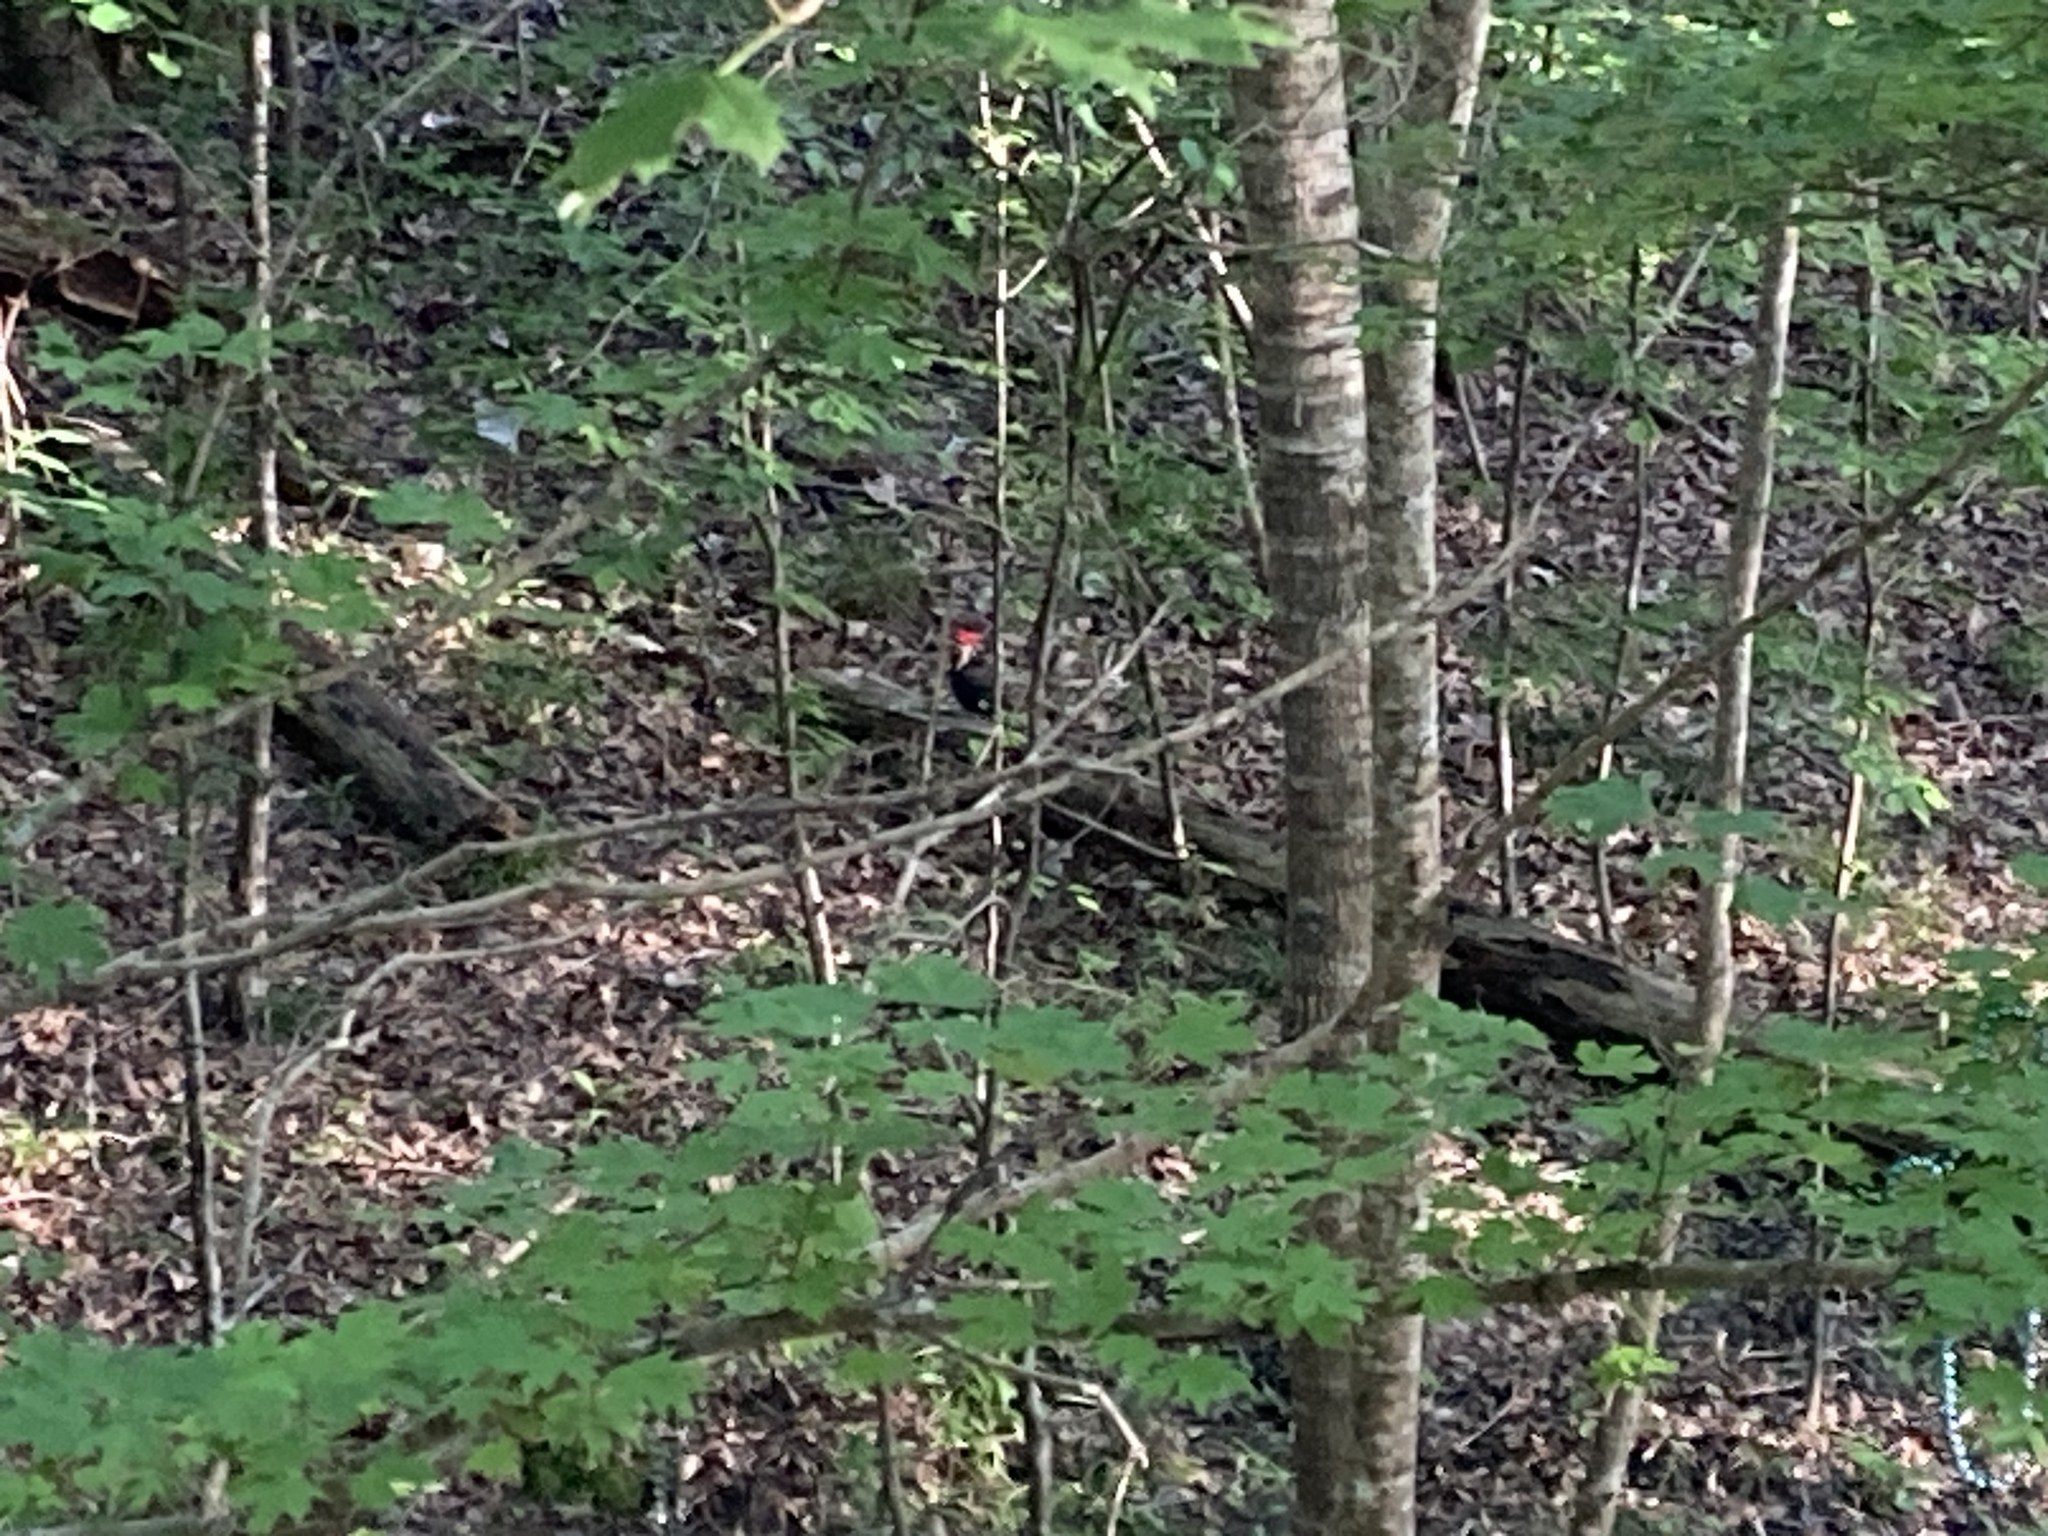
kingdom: Animalia
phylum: Chordata
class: Aves
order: Piciformes
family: Picidae
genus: Dryocopus
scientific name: Dryocopus pileatus
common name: Pileated woodpecker
